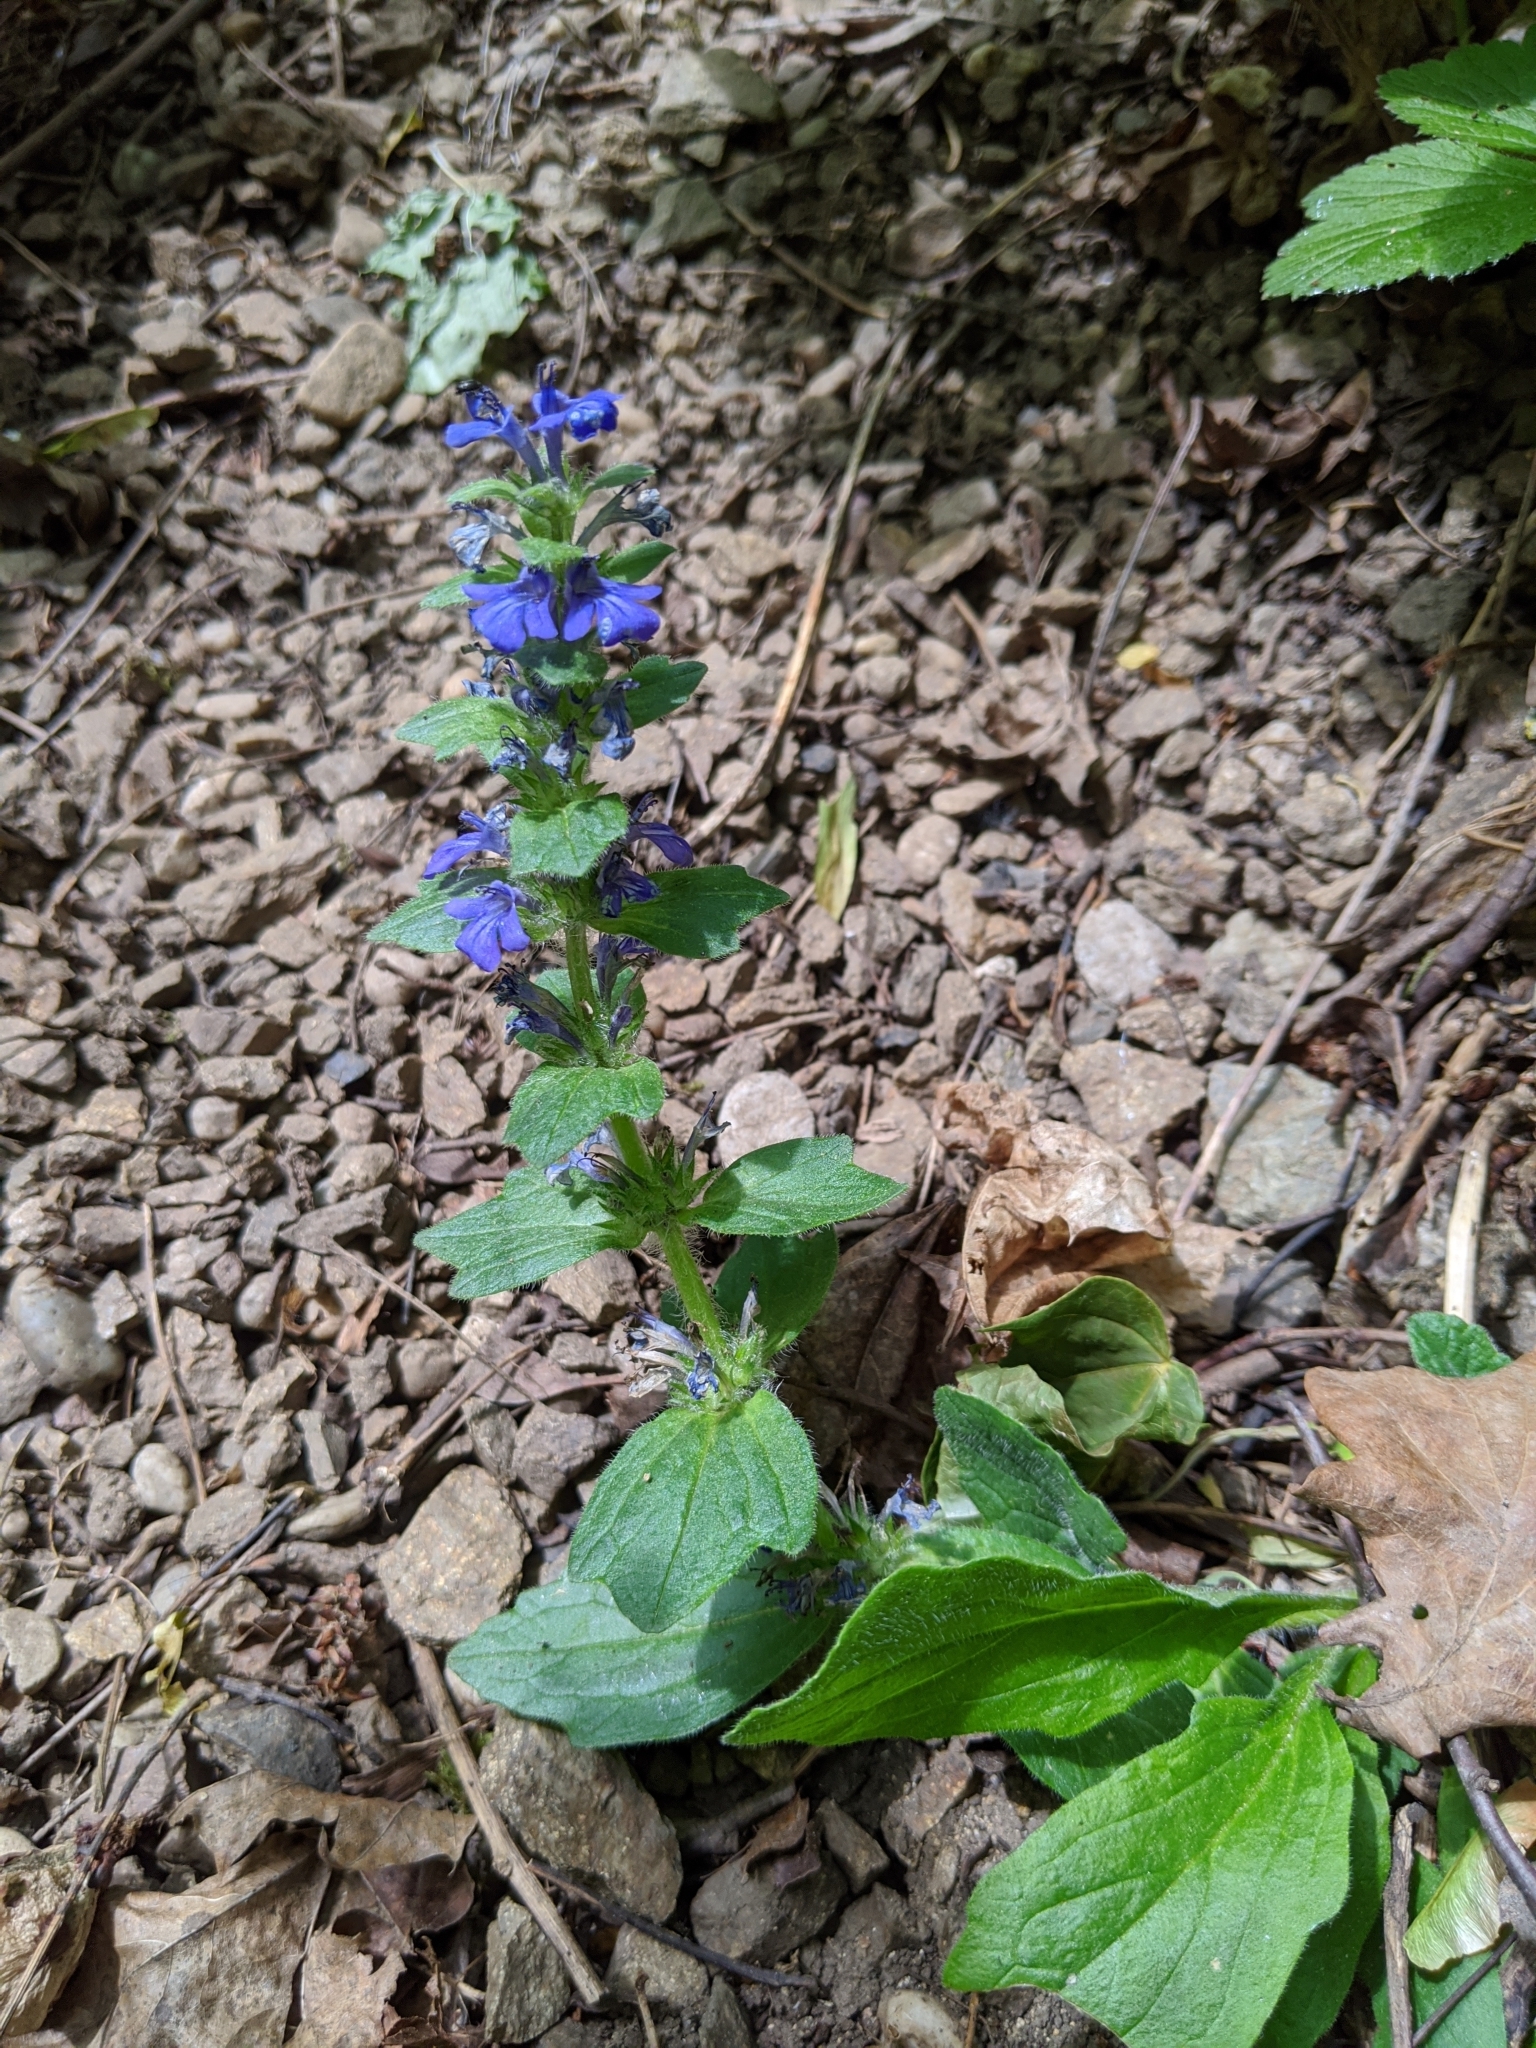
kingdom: Plantae
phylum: Tracheophyta
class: Magnoliopsida
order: Lamiales
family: Lamiaceae
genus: Ajuga
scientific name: Ajuga genevensis
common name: Blue bugle
